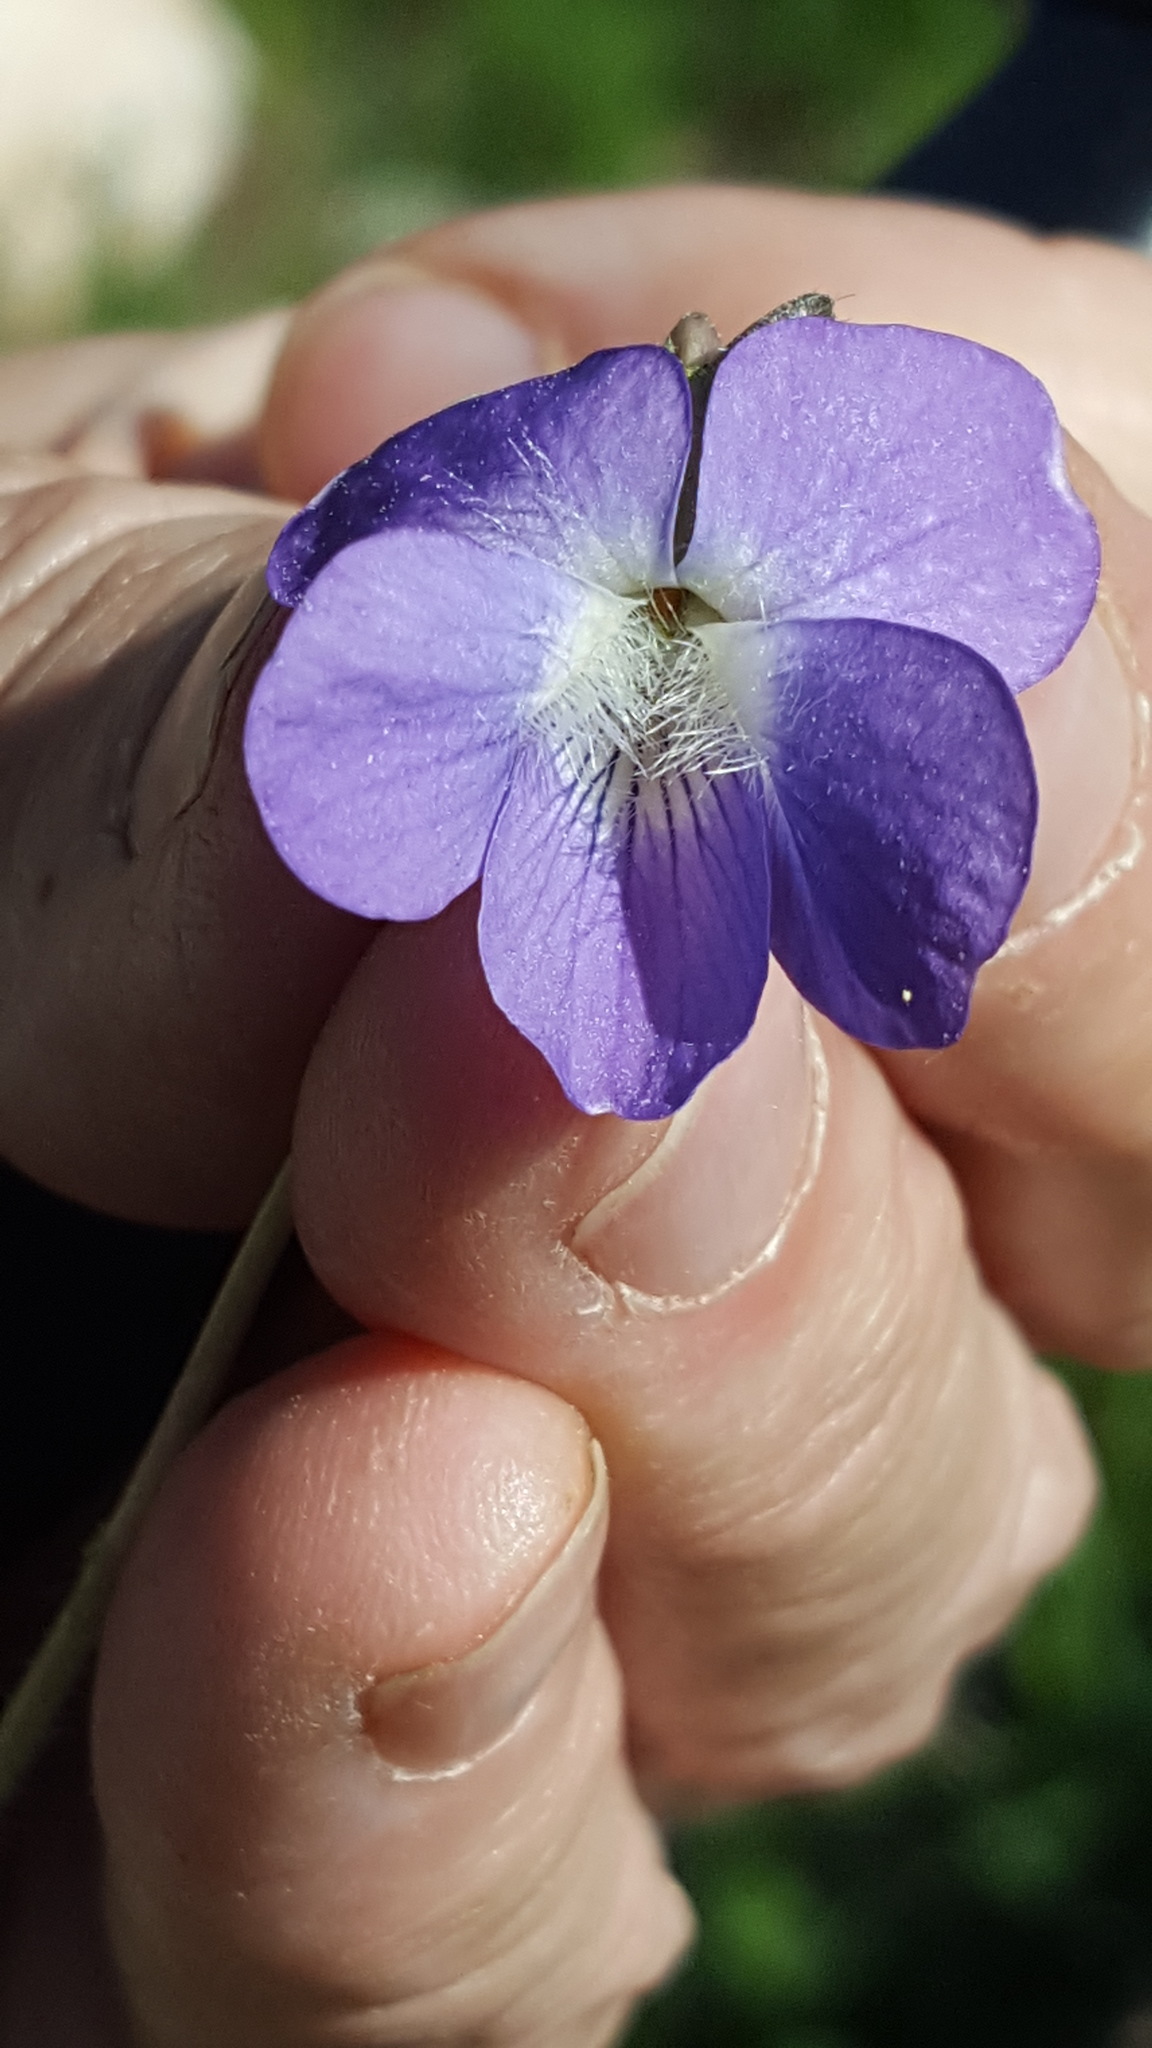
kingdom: Plantae
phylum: Tracheophyta
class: Magnoliopsida
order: Malpighiales
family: Violaceae
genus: Viola
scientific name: Viola sagittata
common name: Arrowhead violet
